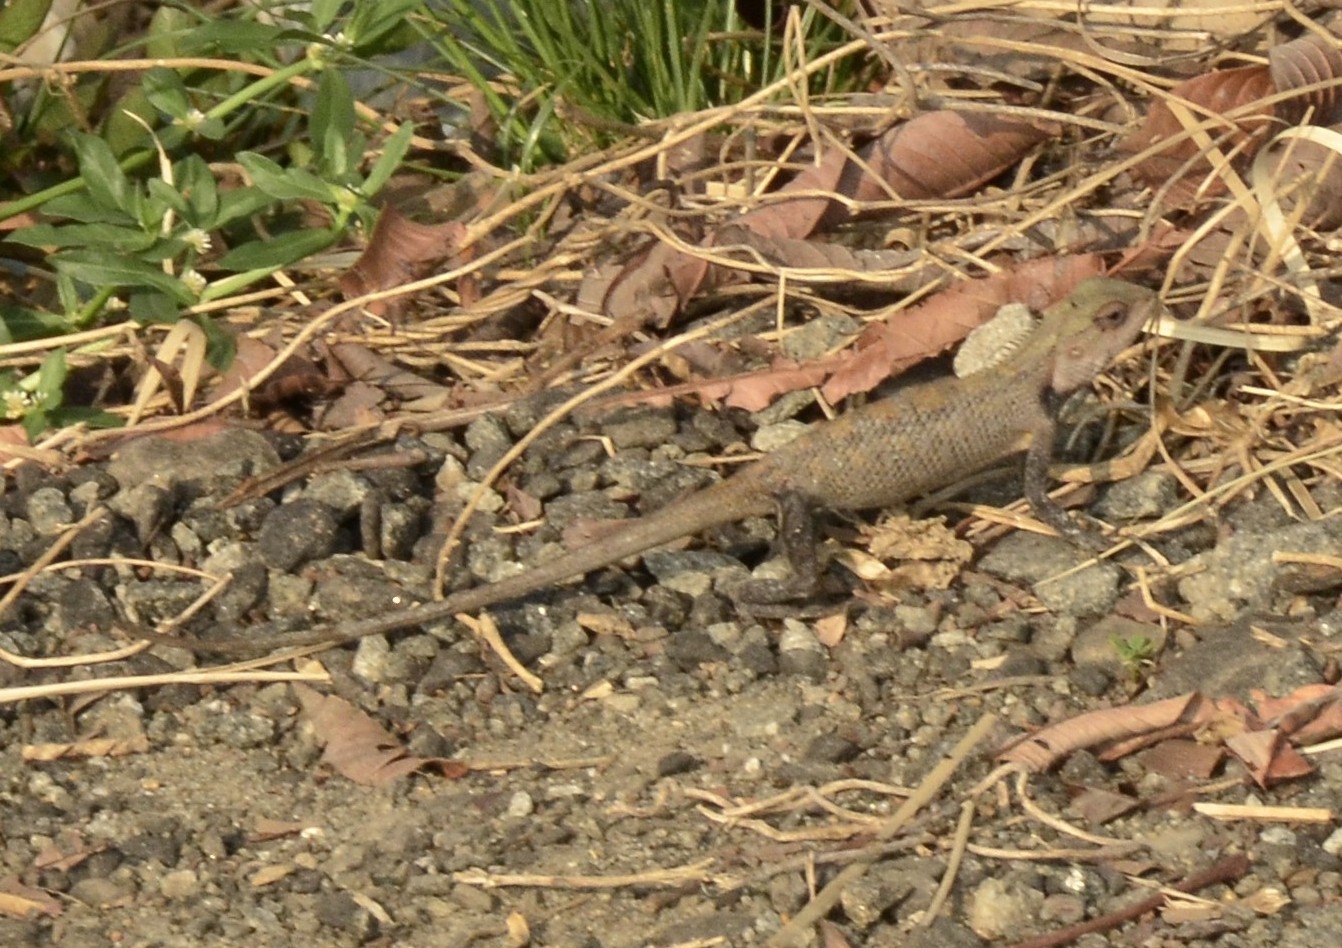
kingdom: Animalia
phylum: Chordata
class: Squamata
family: Agamidae
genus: Calotes
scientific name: Calotes versicolor
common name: Oriental garden lizard
